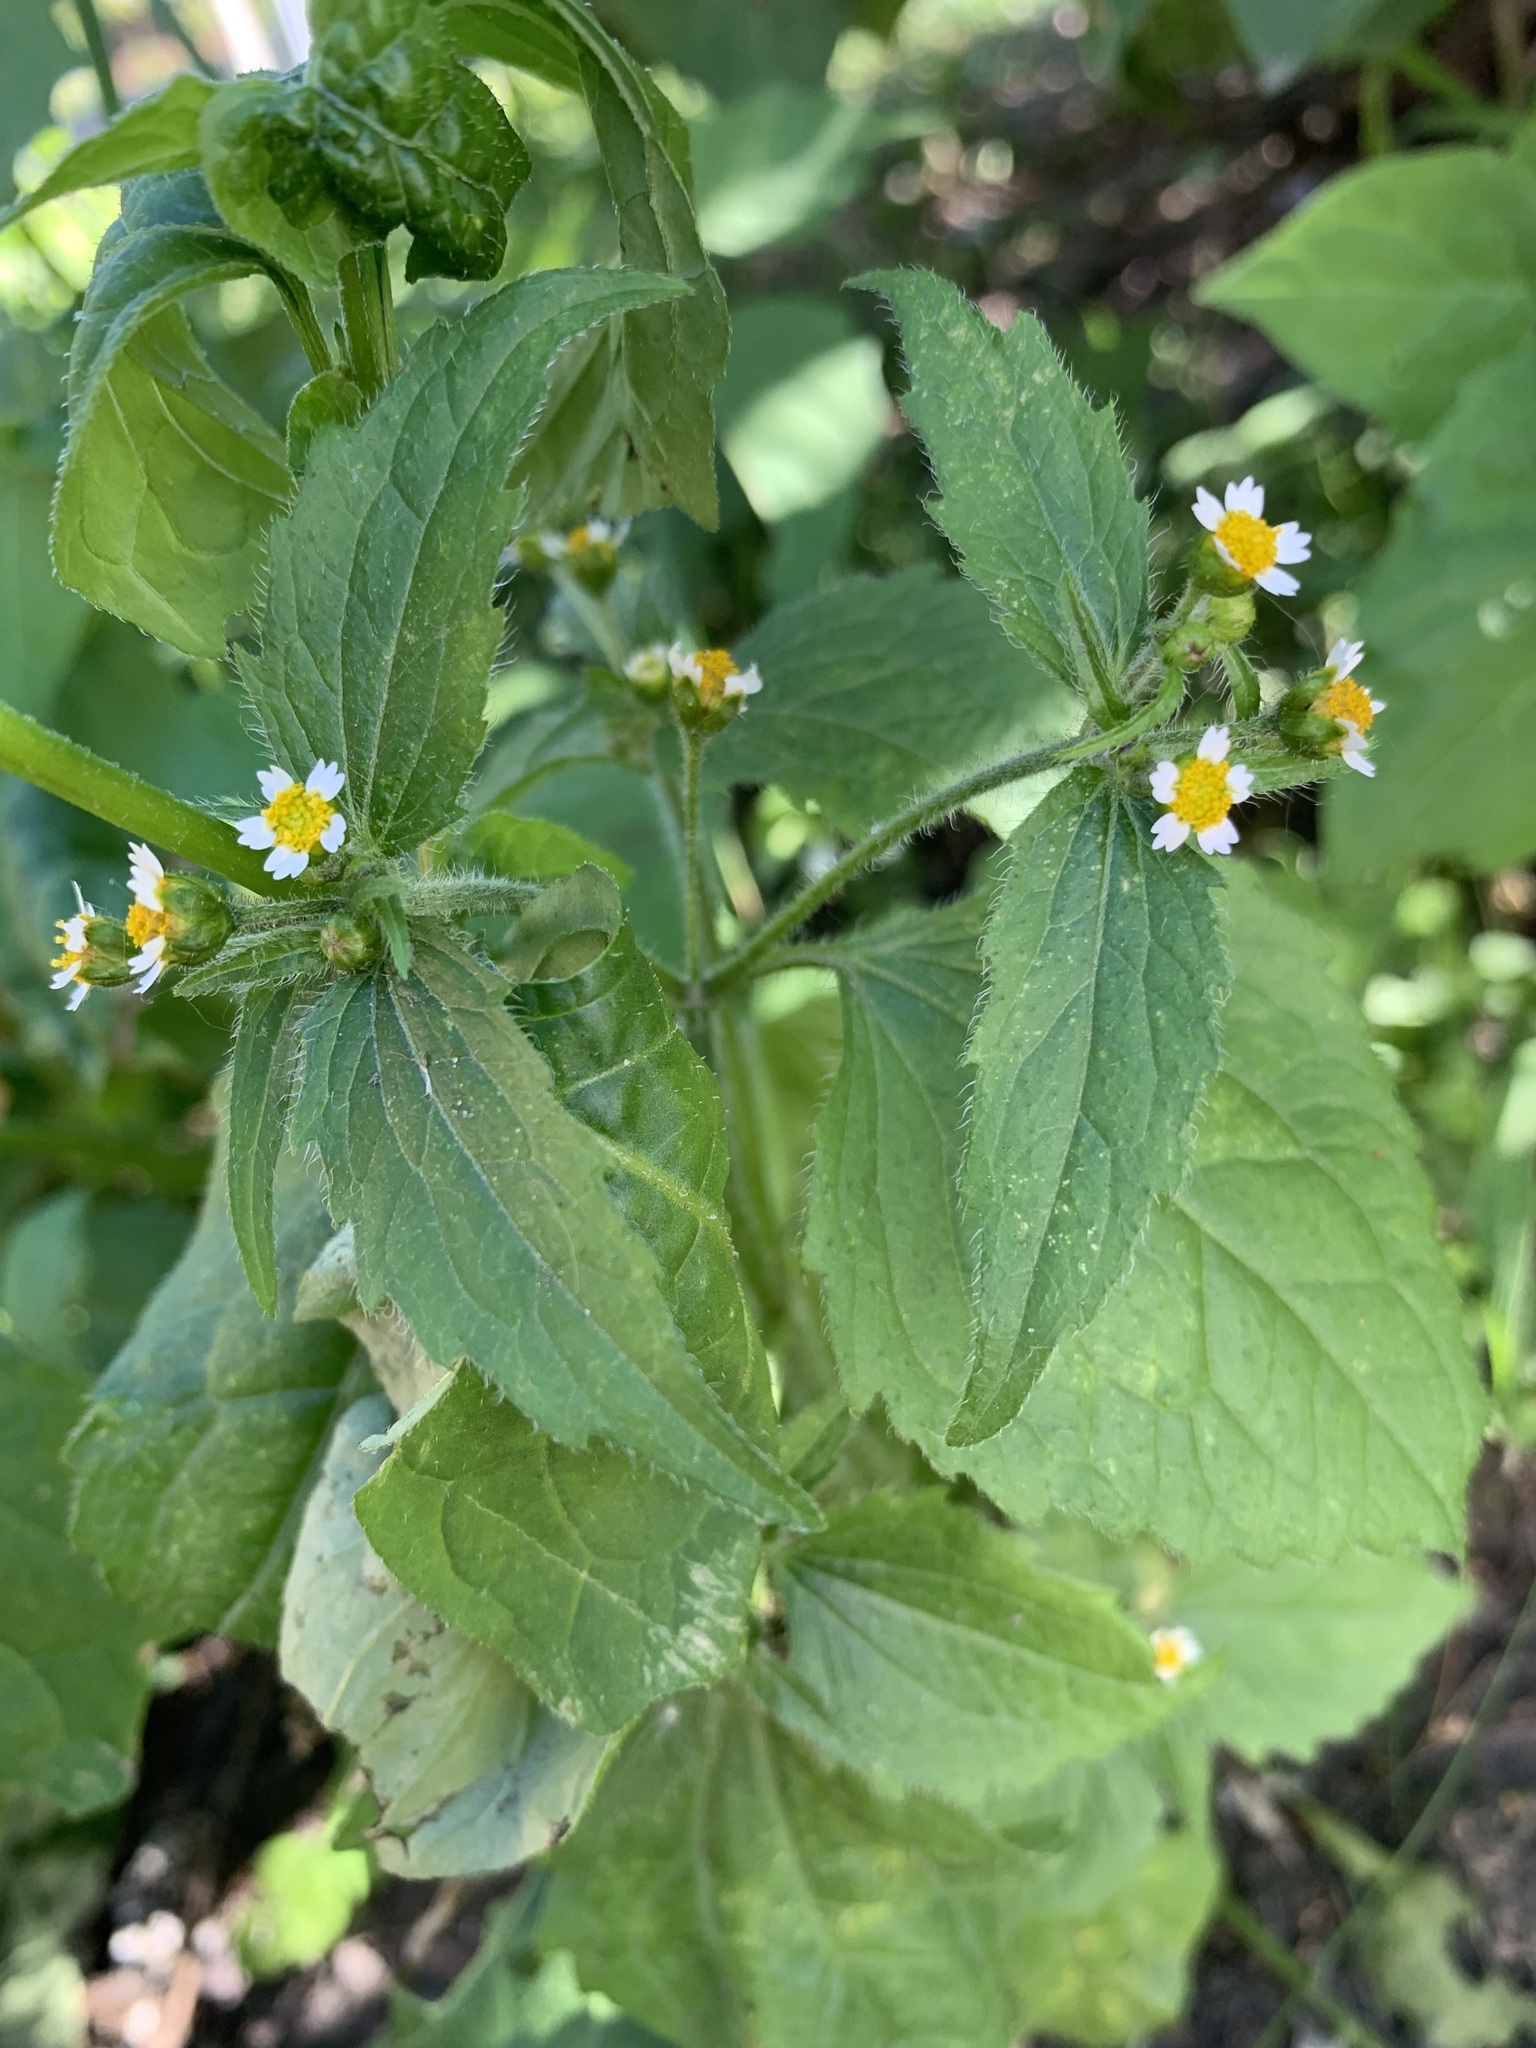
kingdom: Plantae
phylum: Tracheophyta
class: Magnoliopsida
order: Asterales
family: Asteraceae
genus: Galinsoga
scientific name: Galinsoga quadriradiata
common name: Shaggy soldier
